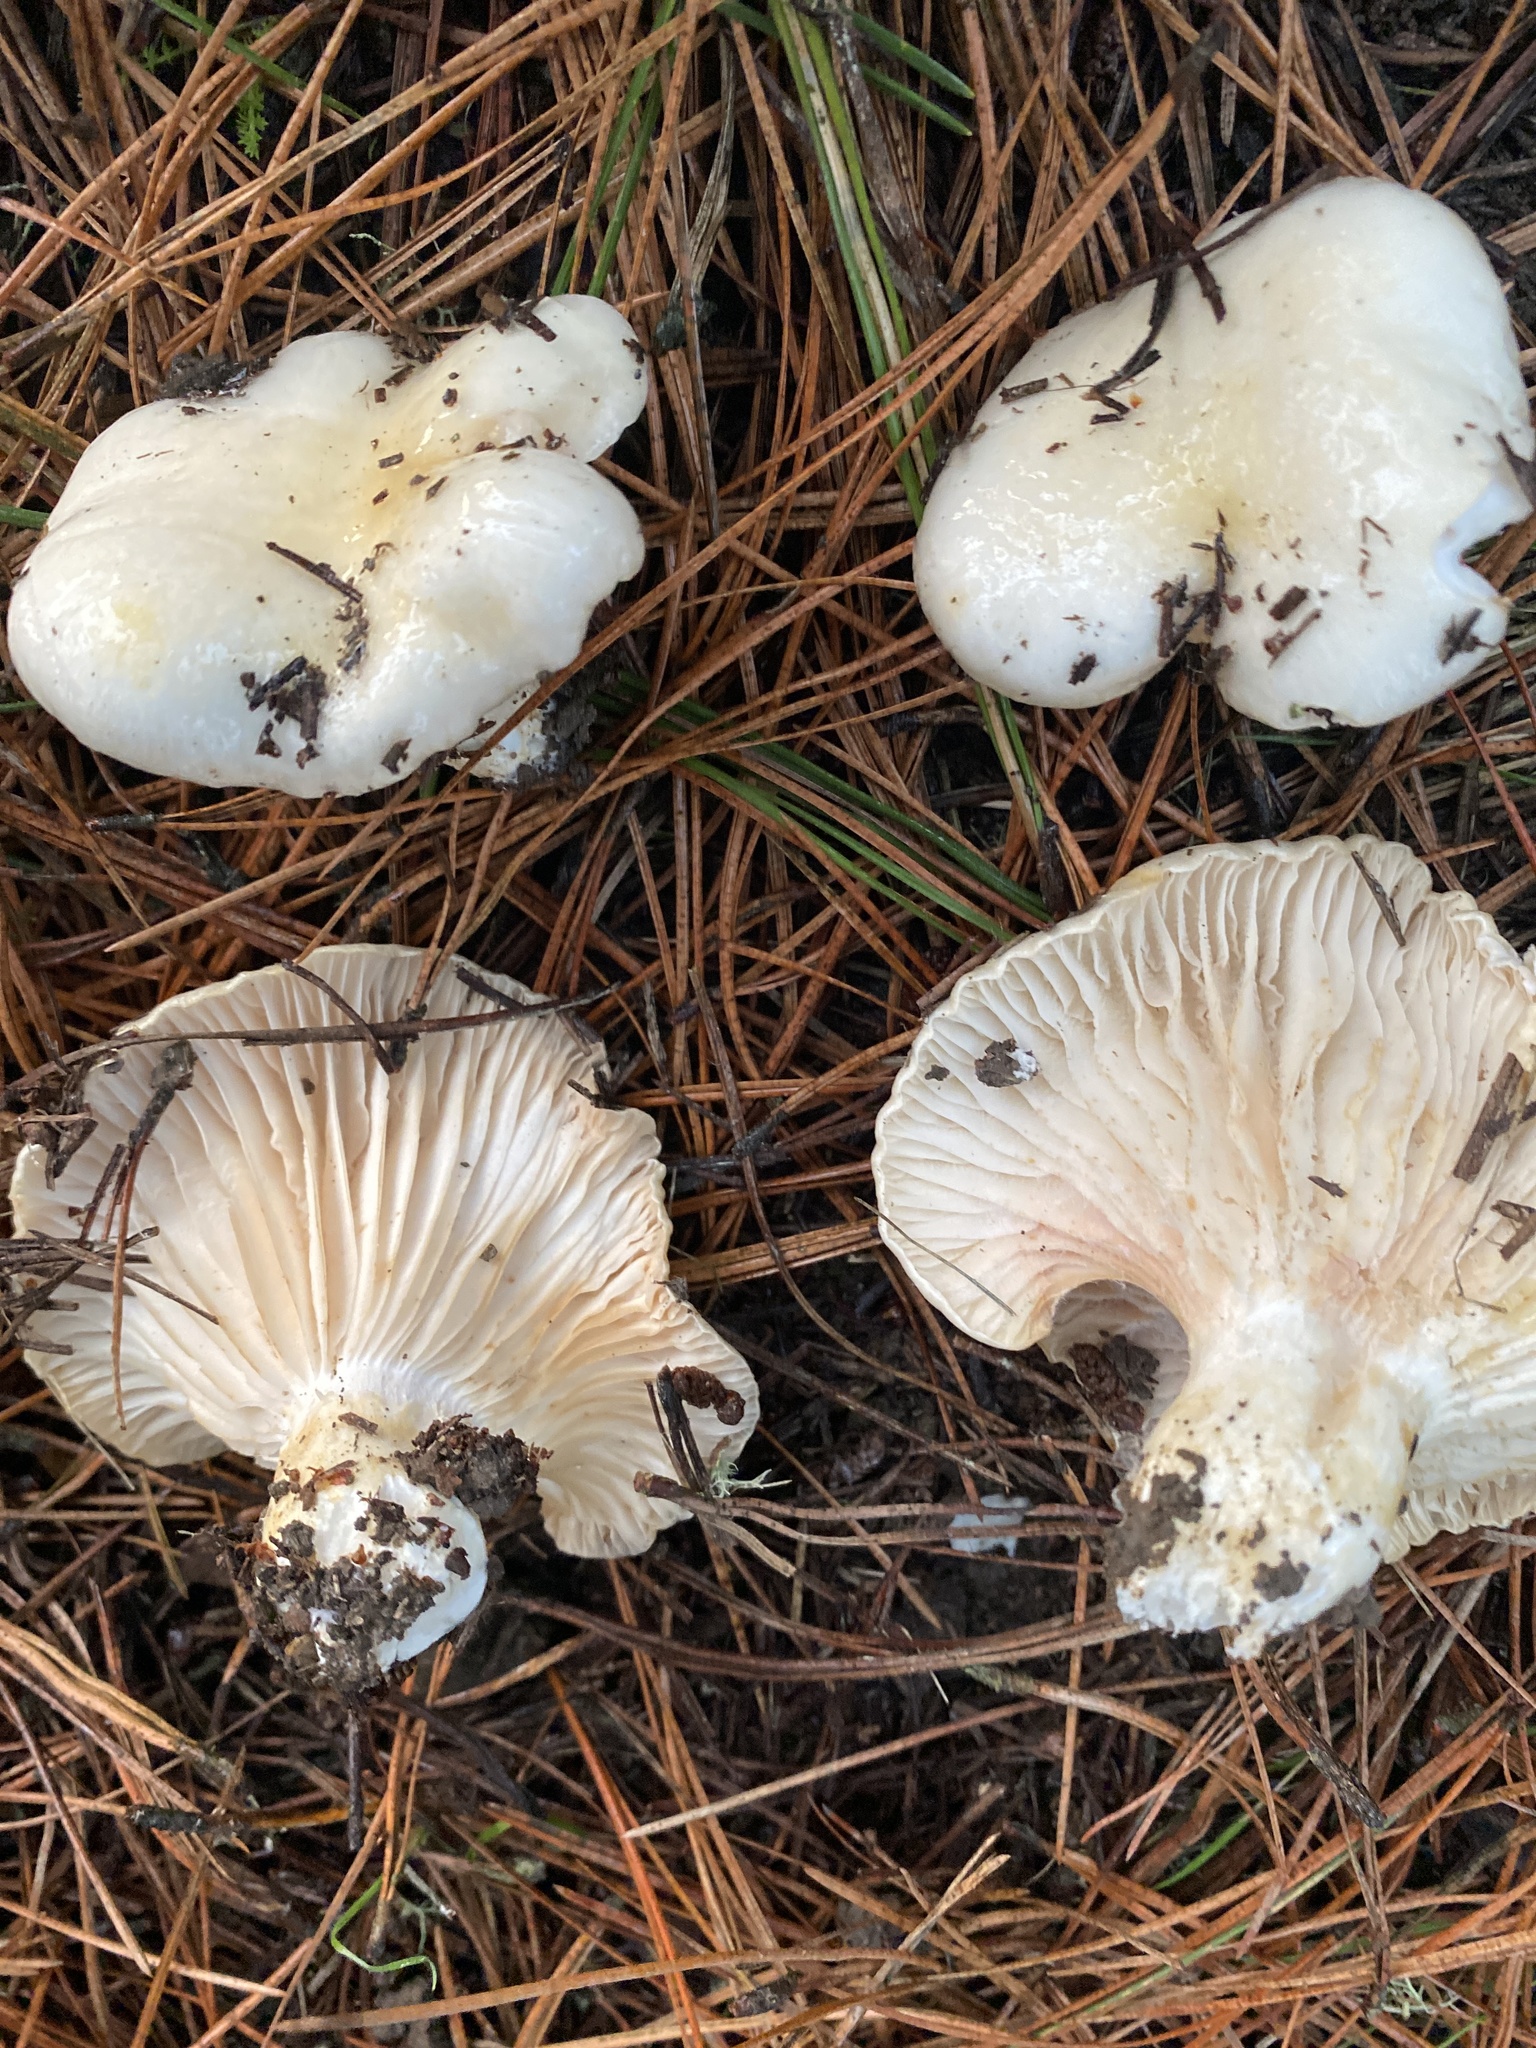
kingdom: Fungi
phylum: Basidiomycota
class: Agaricomycetes
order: Agaricales
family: Hygrophoraceae
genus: Hygrophorus
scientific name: Hygrophorus ligatus
